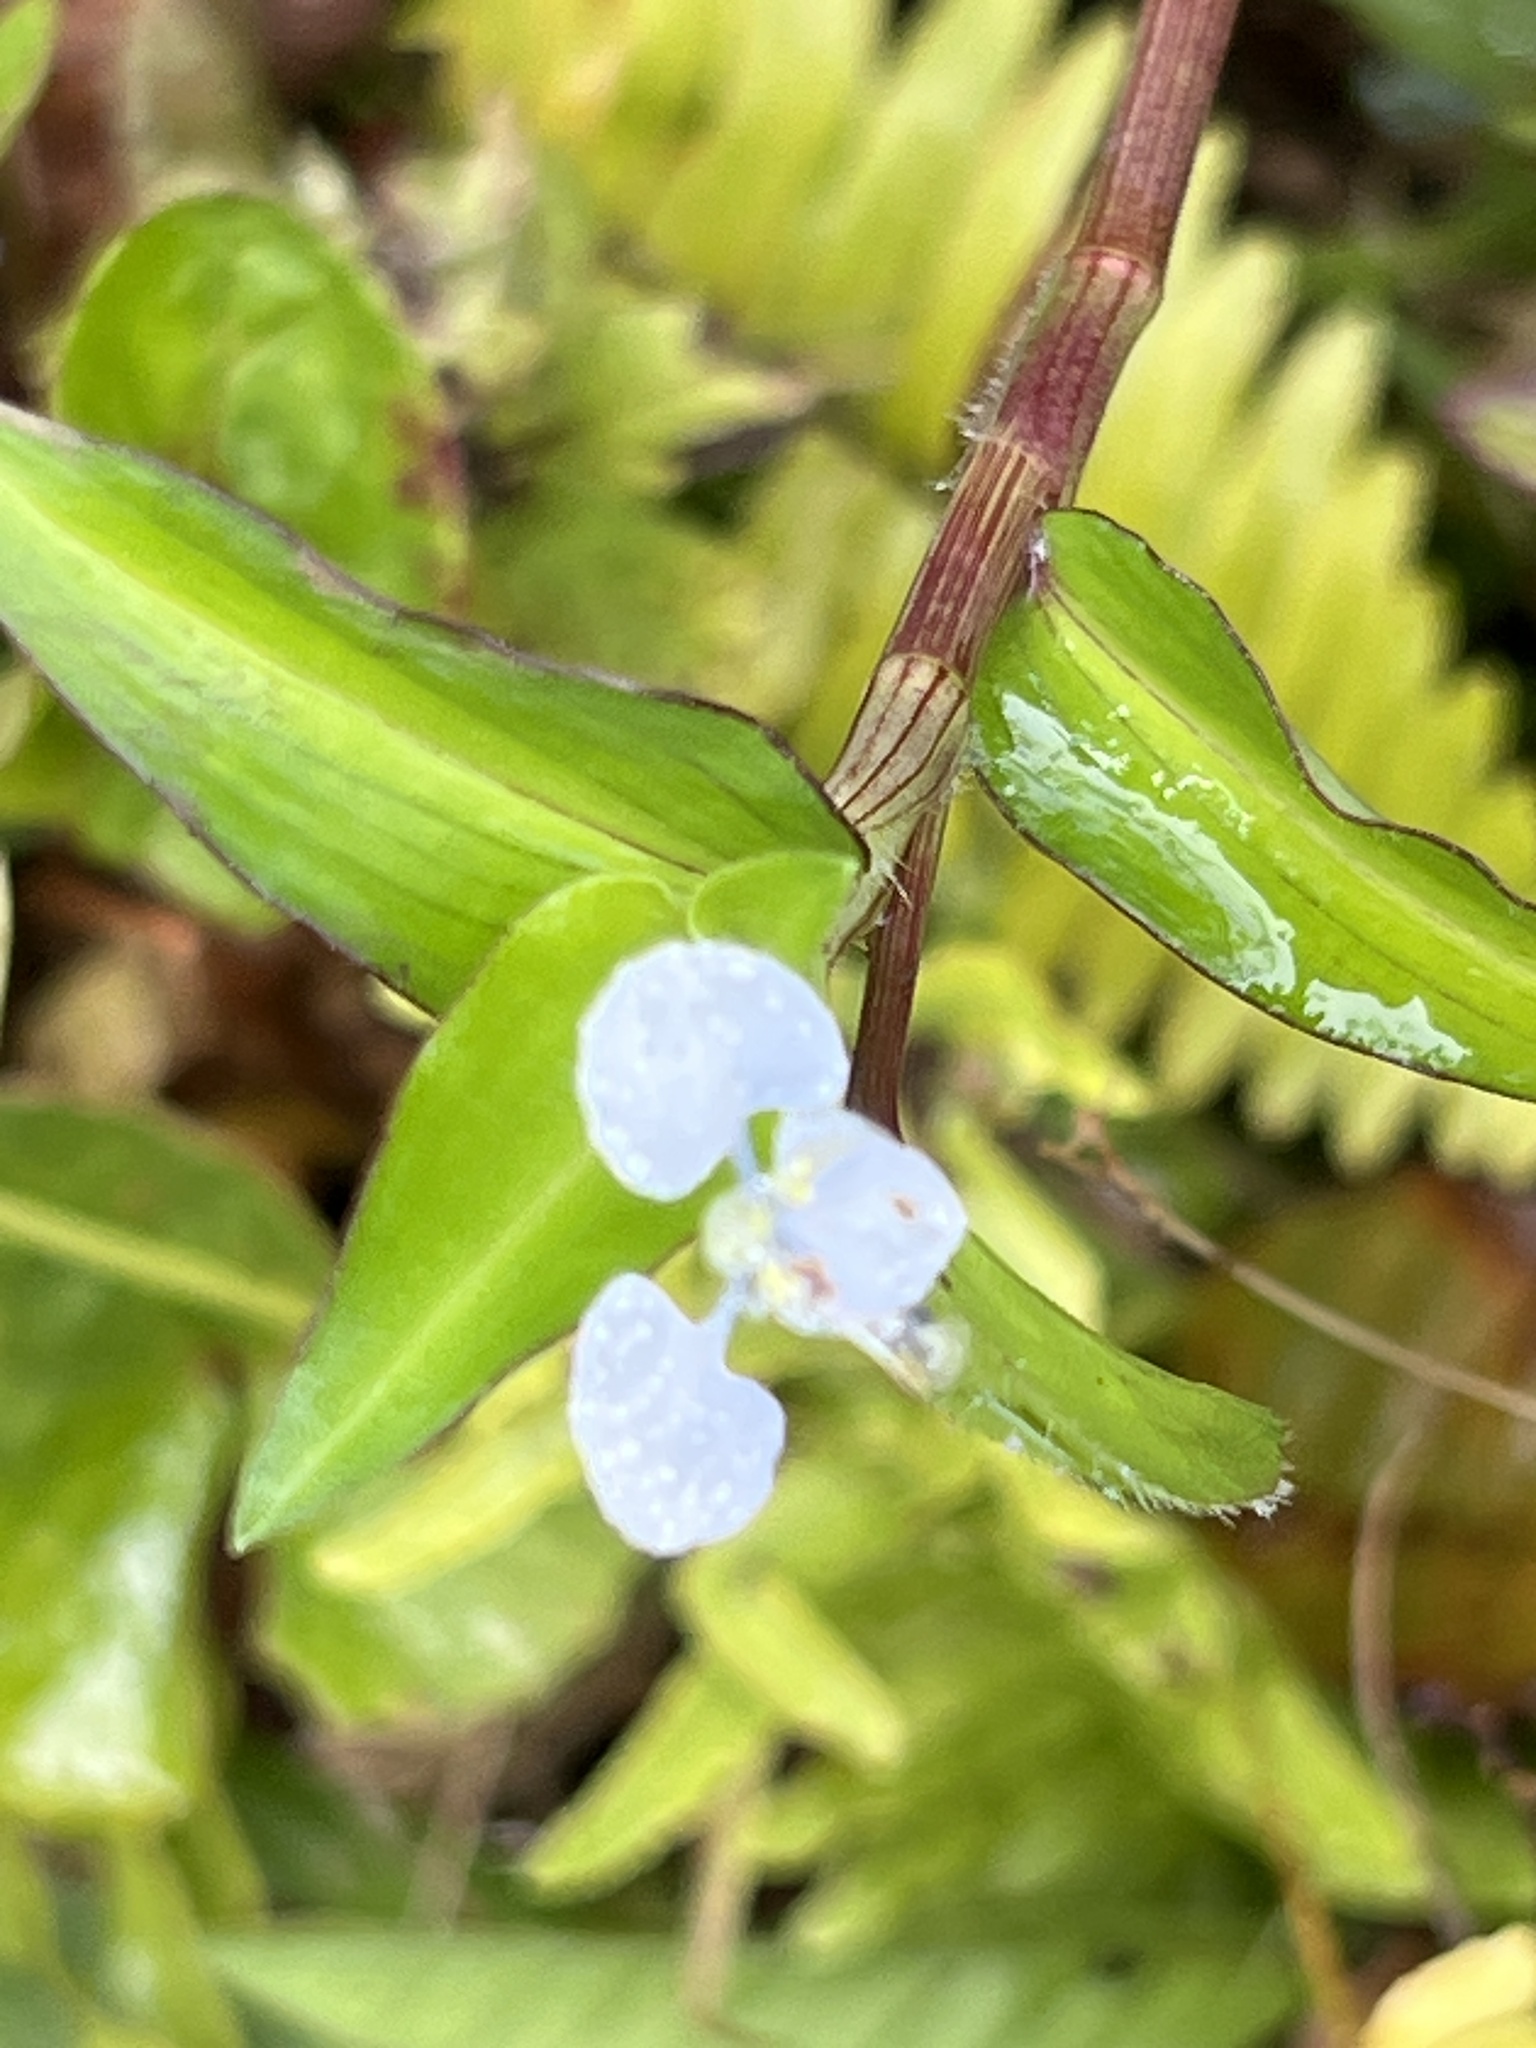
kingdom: Plantae
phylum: Tracheophyta
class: Liliopsida
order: Commelinales
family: Commelinaceae
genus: Commelina
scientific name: Commelina diffusa
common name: Climbing dayflower
